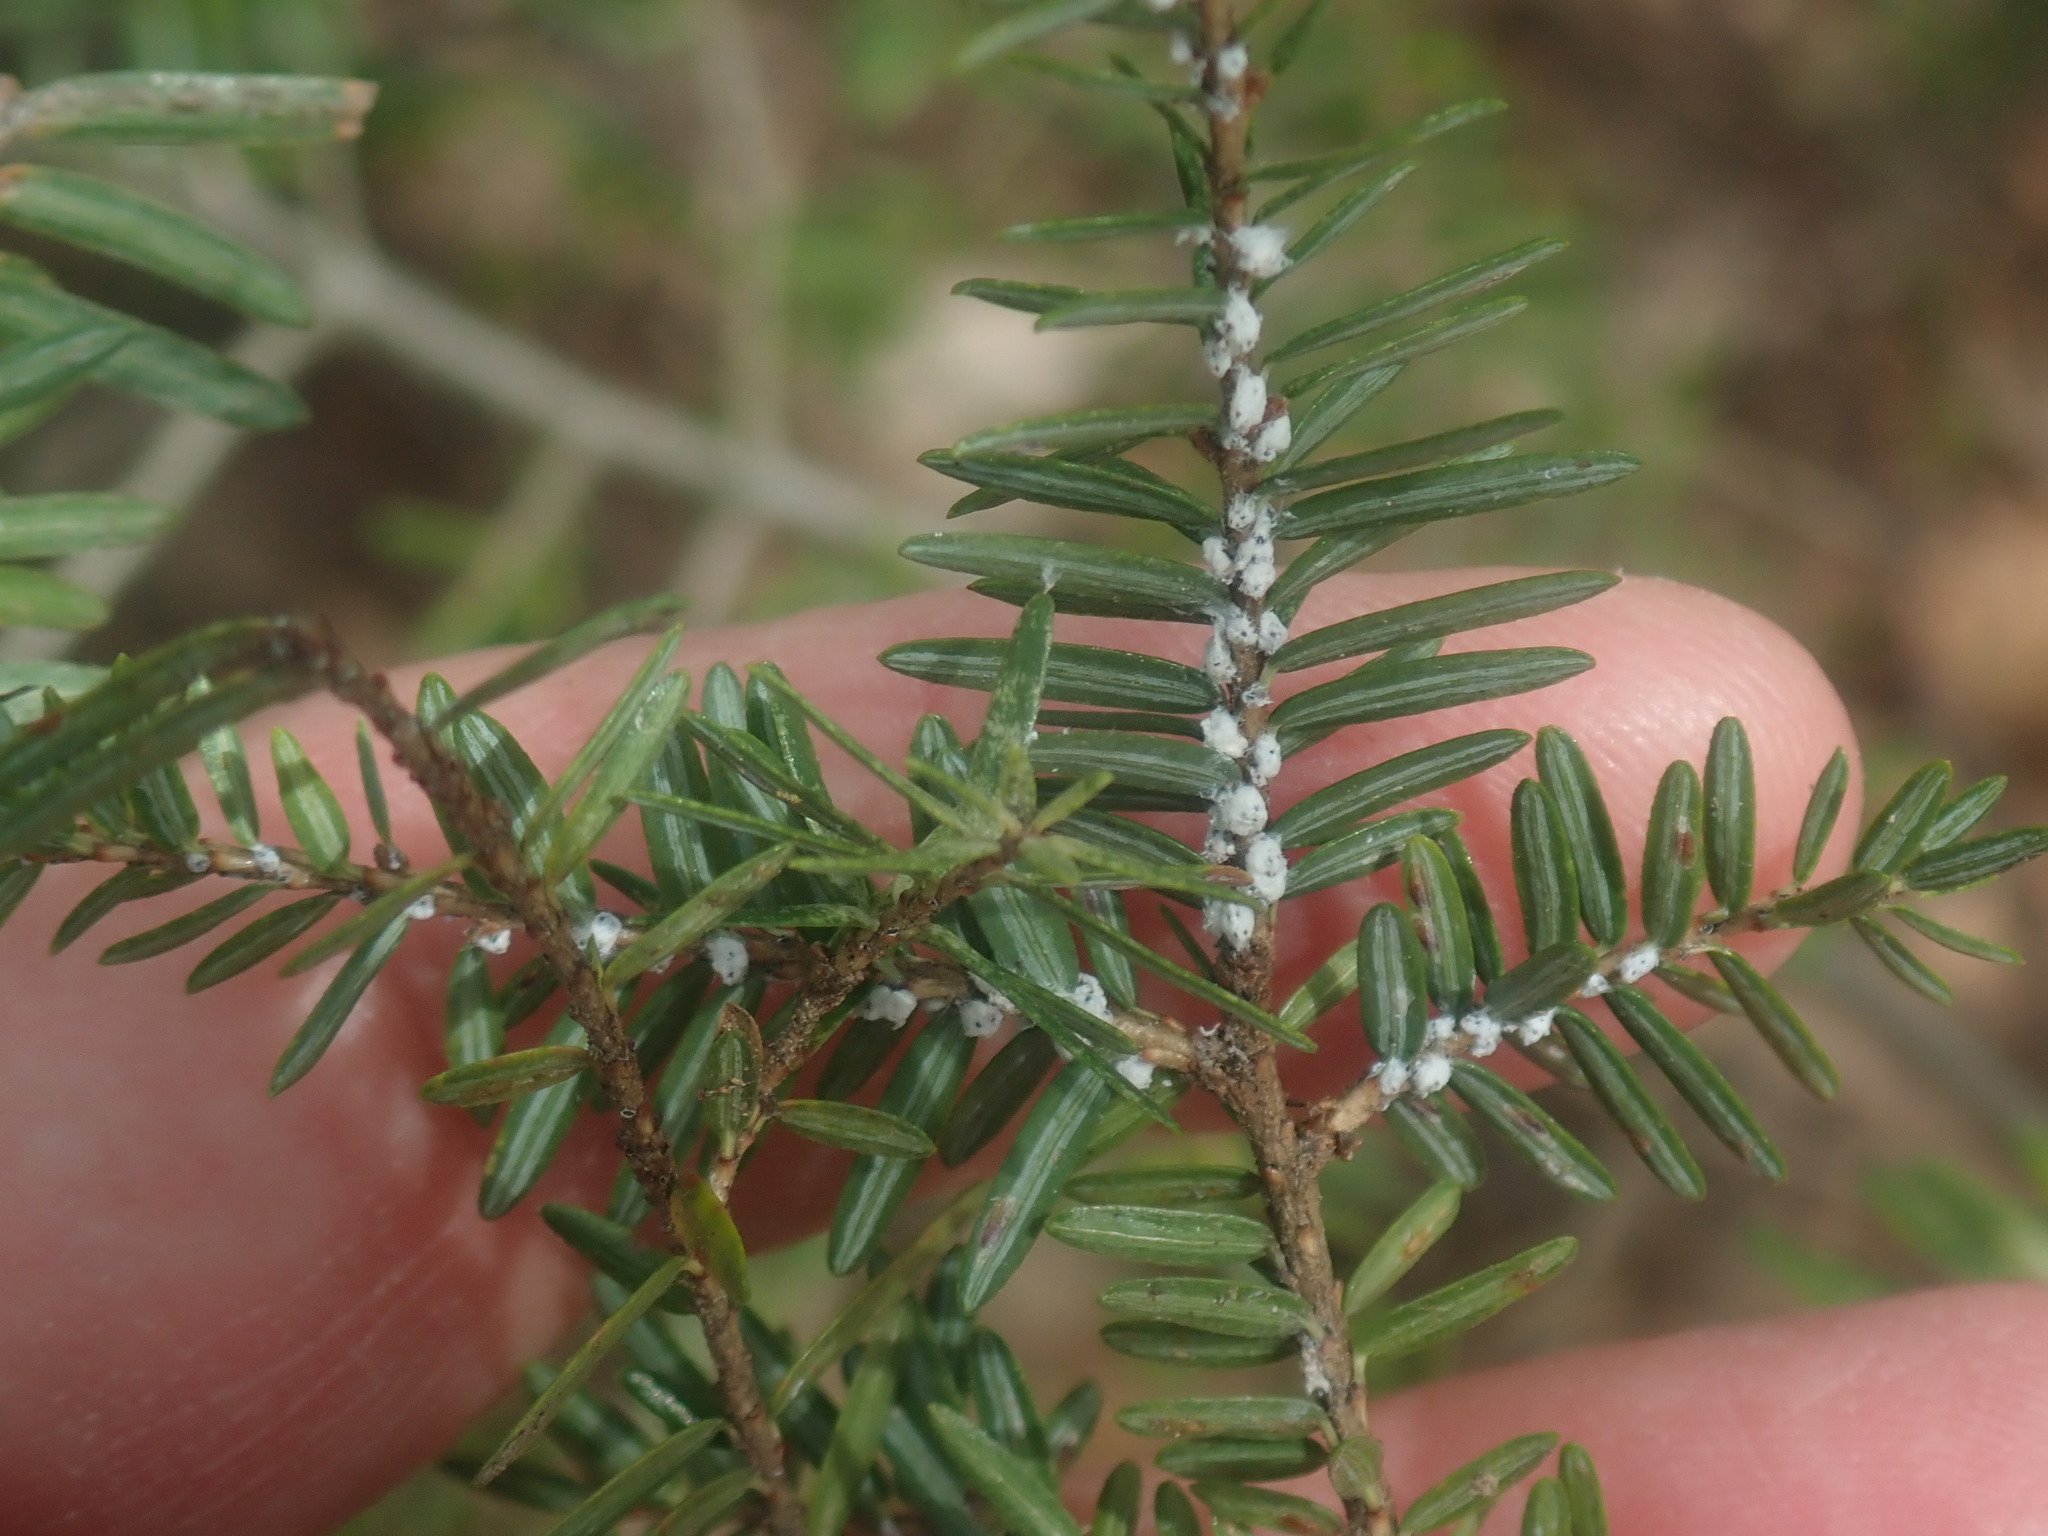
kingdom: Animalia
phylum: Arthropoda
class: Insecta
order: Hemiptera
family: Adelgidae
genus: Adelges
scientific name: Adelges tsugae
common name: Hemlock woolly adelgid
